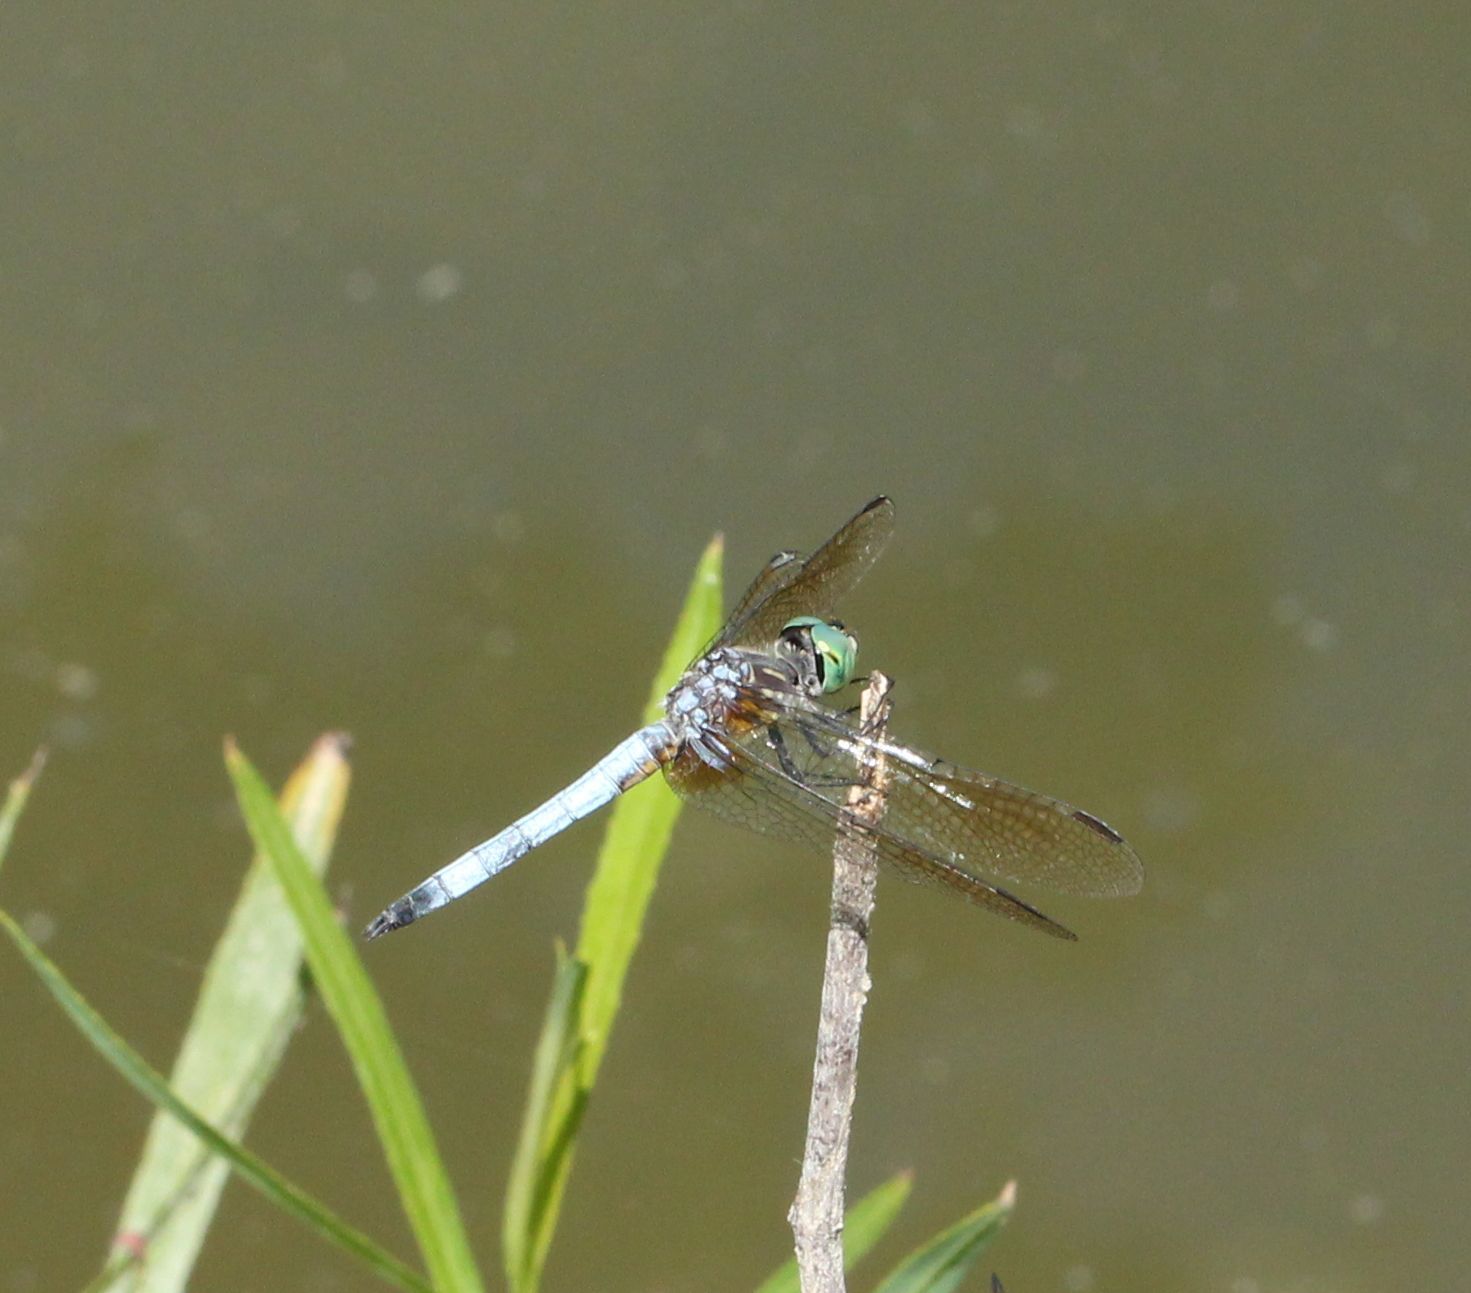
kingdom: Animalia
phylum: Arthropoda
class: Insecta
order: Odonata
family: Libellulidae
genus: Pachydiplax
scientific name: Pachydiplax longipennis
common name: Blue dasher
